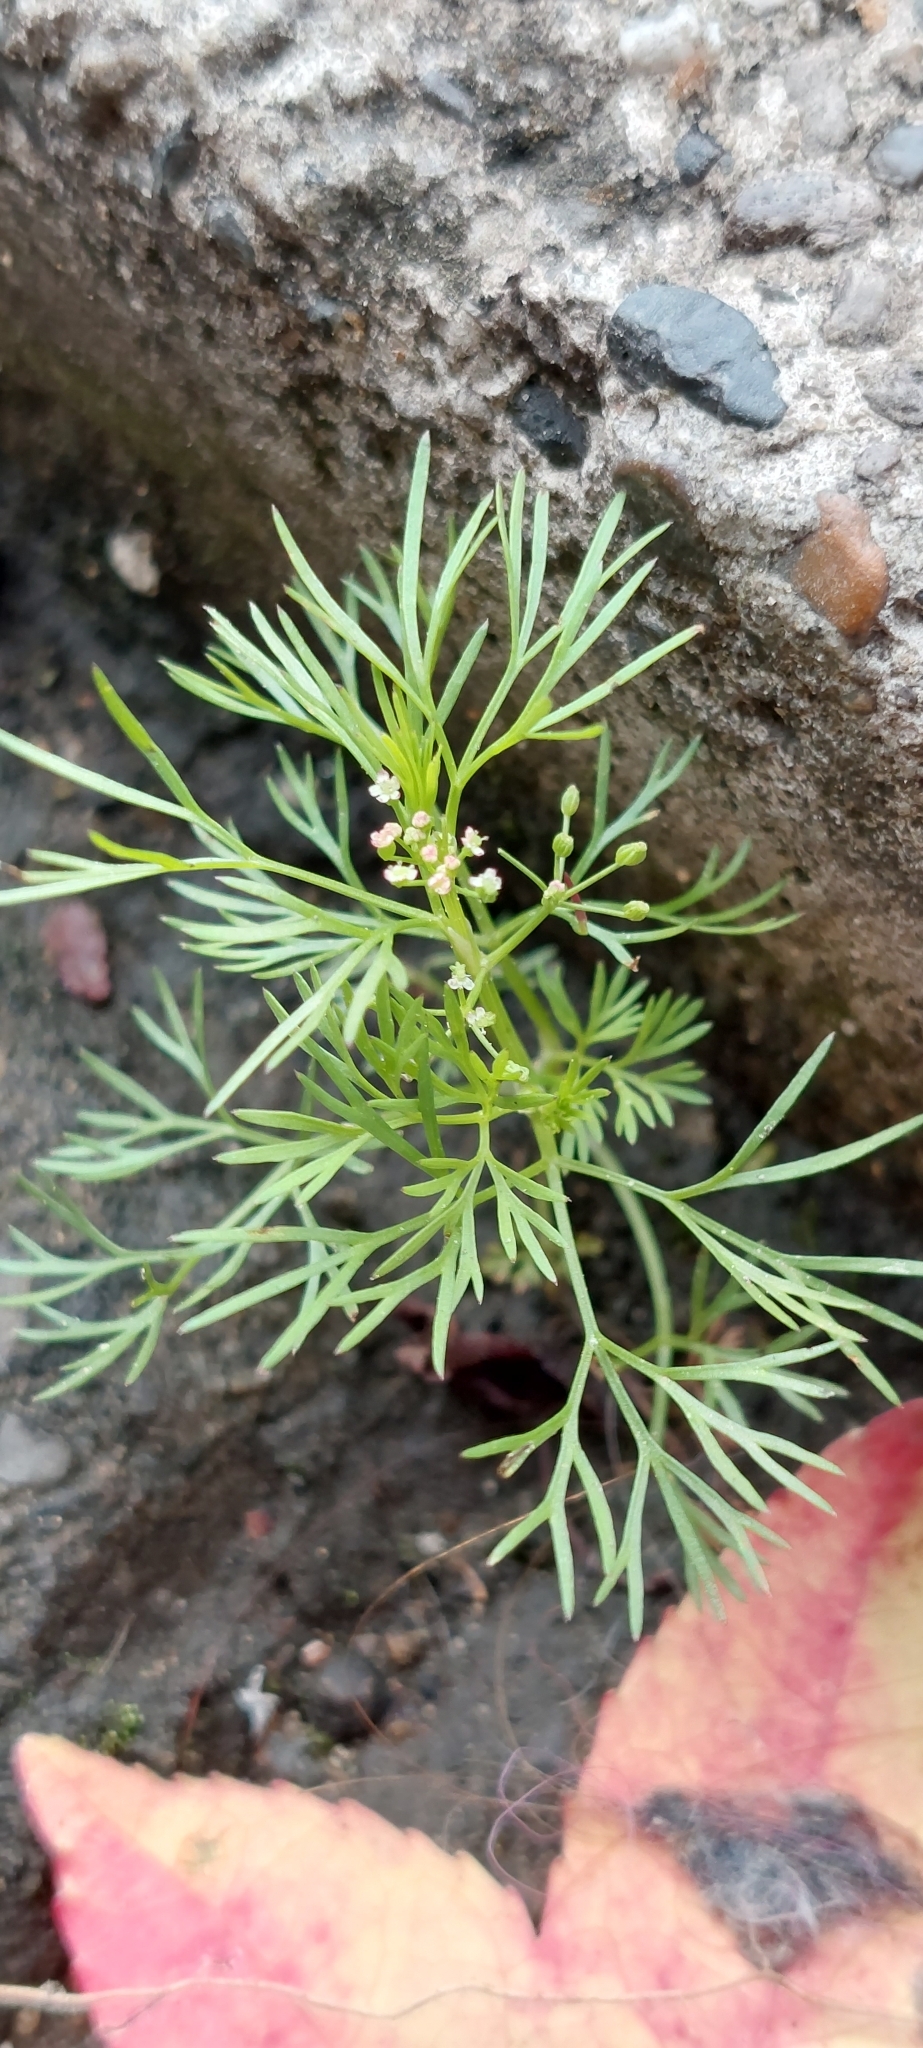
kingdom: Plantae
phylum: Tracheophyta
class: Magnoliopsida
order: Apiales
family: Apiaceae
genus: Cyclospermum
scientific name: Cyclospermum leptophyllum
